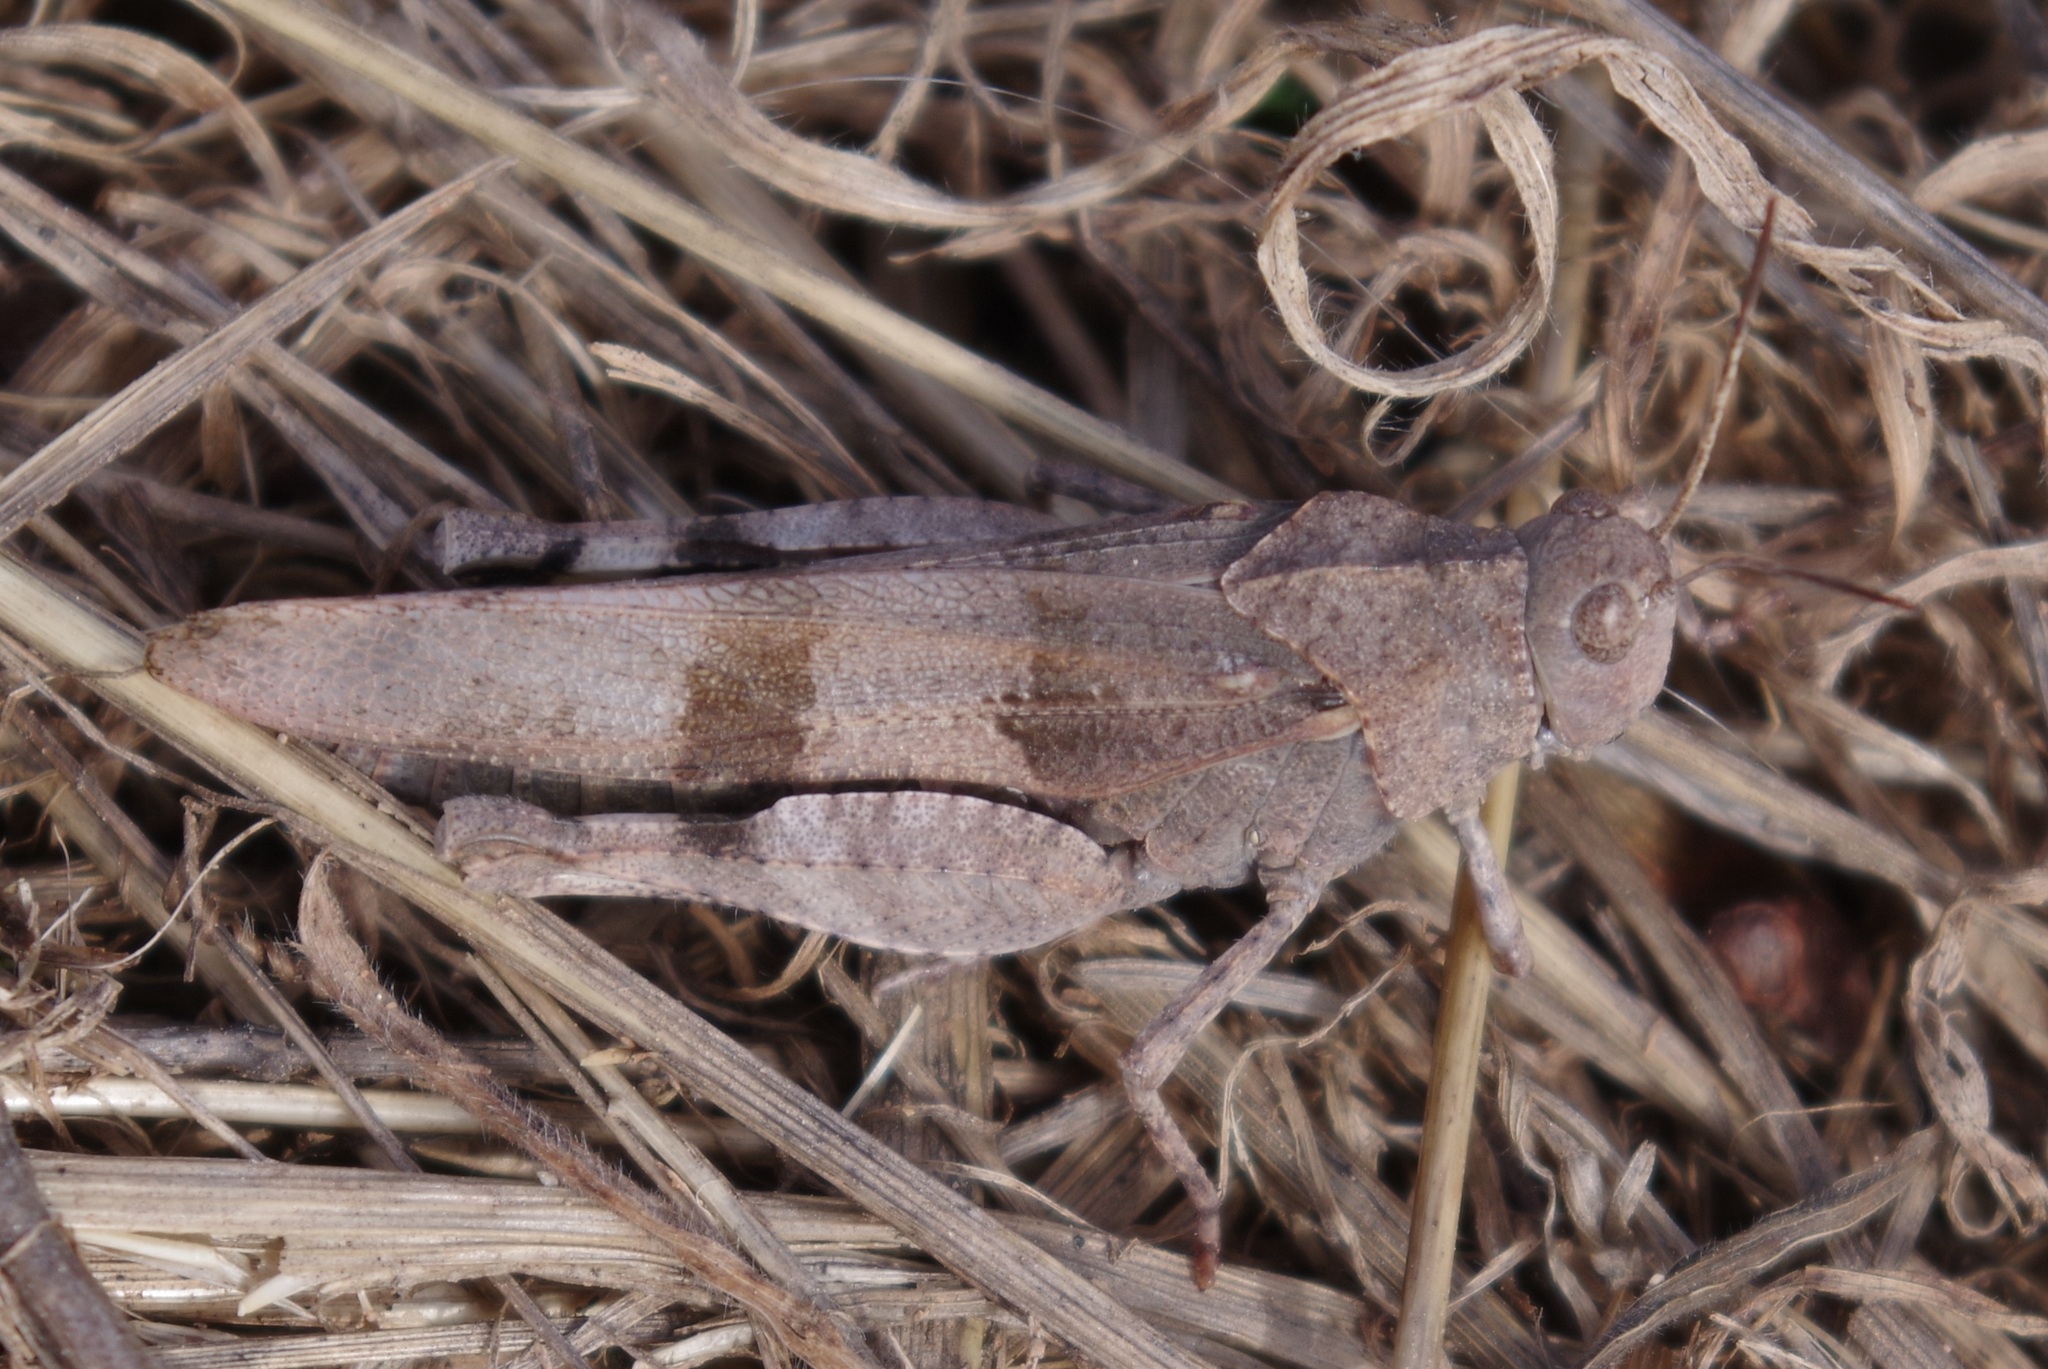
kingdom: Animalia
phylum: Arthropoda
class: Insecta
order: Orthoptera
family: Acrididae
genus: Oedipoda
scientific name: Oedipoda caerulescens
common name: Blue-winged grasshopper
